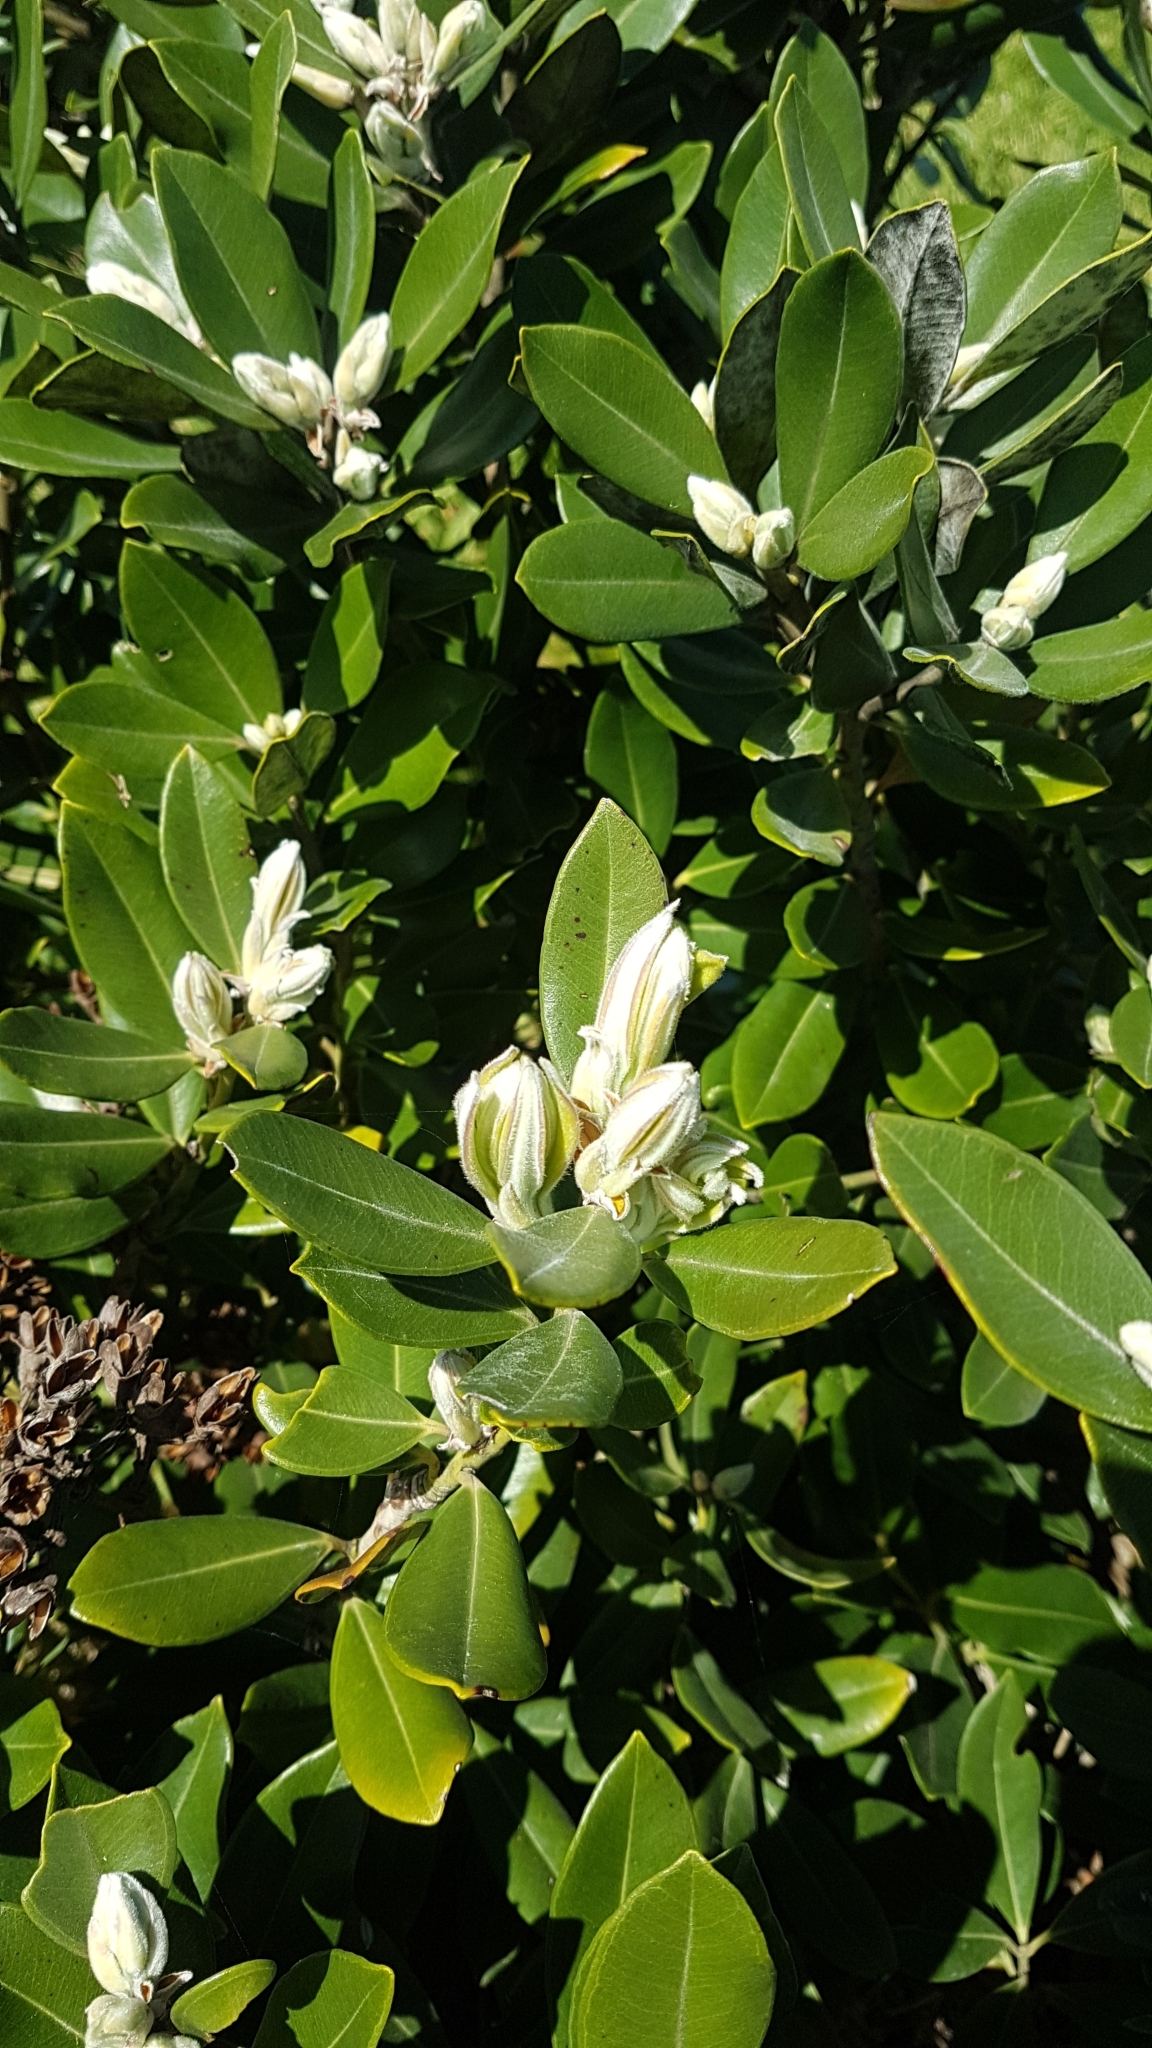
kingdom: Plantae
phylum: Tracheophyta
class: Magnoliopsida
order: Myrtales
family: Myrtaceae
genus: Metrosideros
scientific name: Metrosideros excelsa
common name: New zealand christmastree
